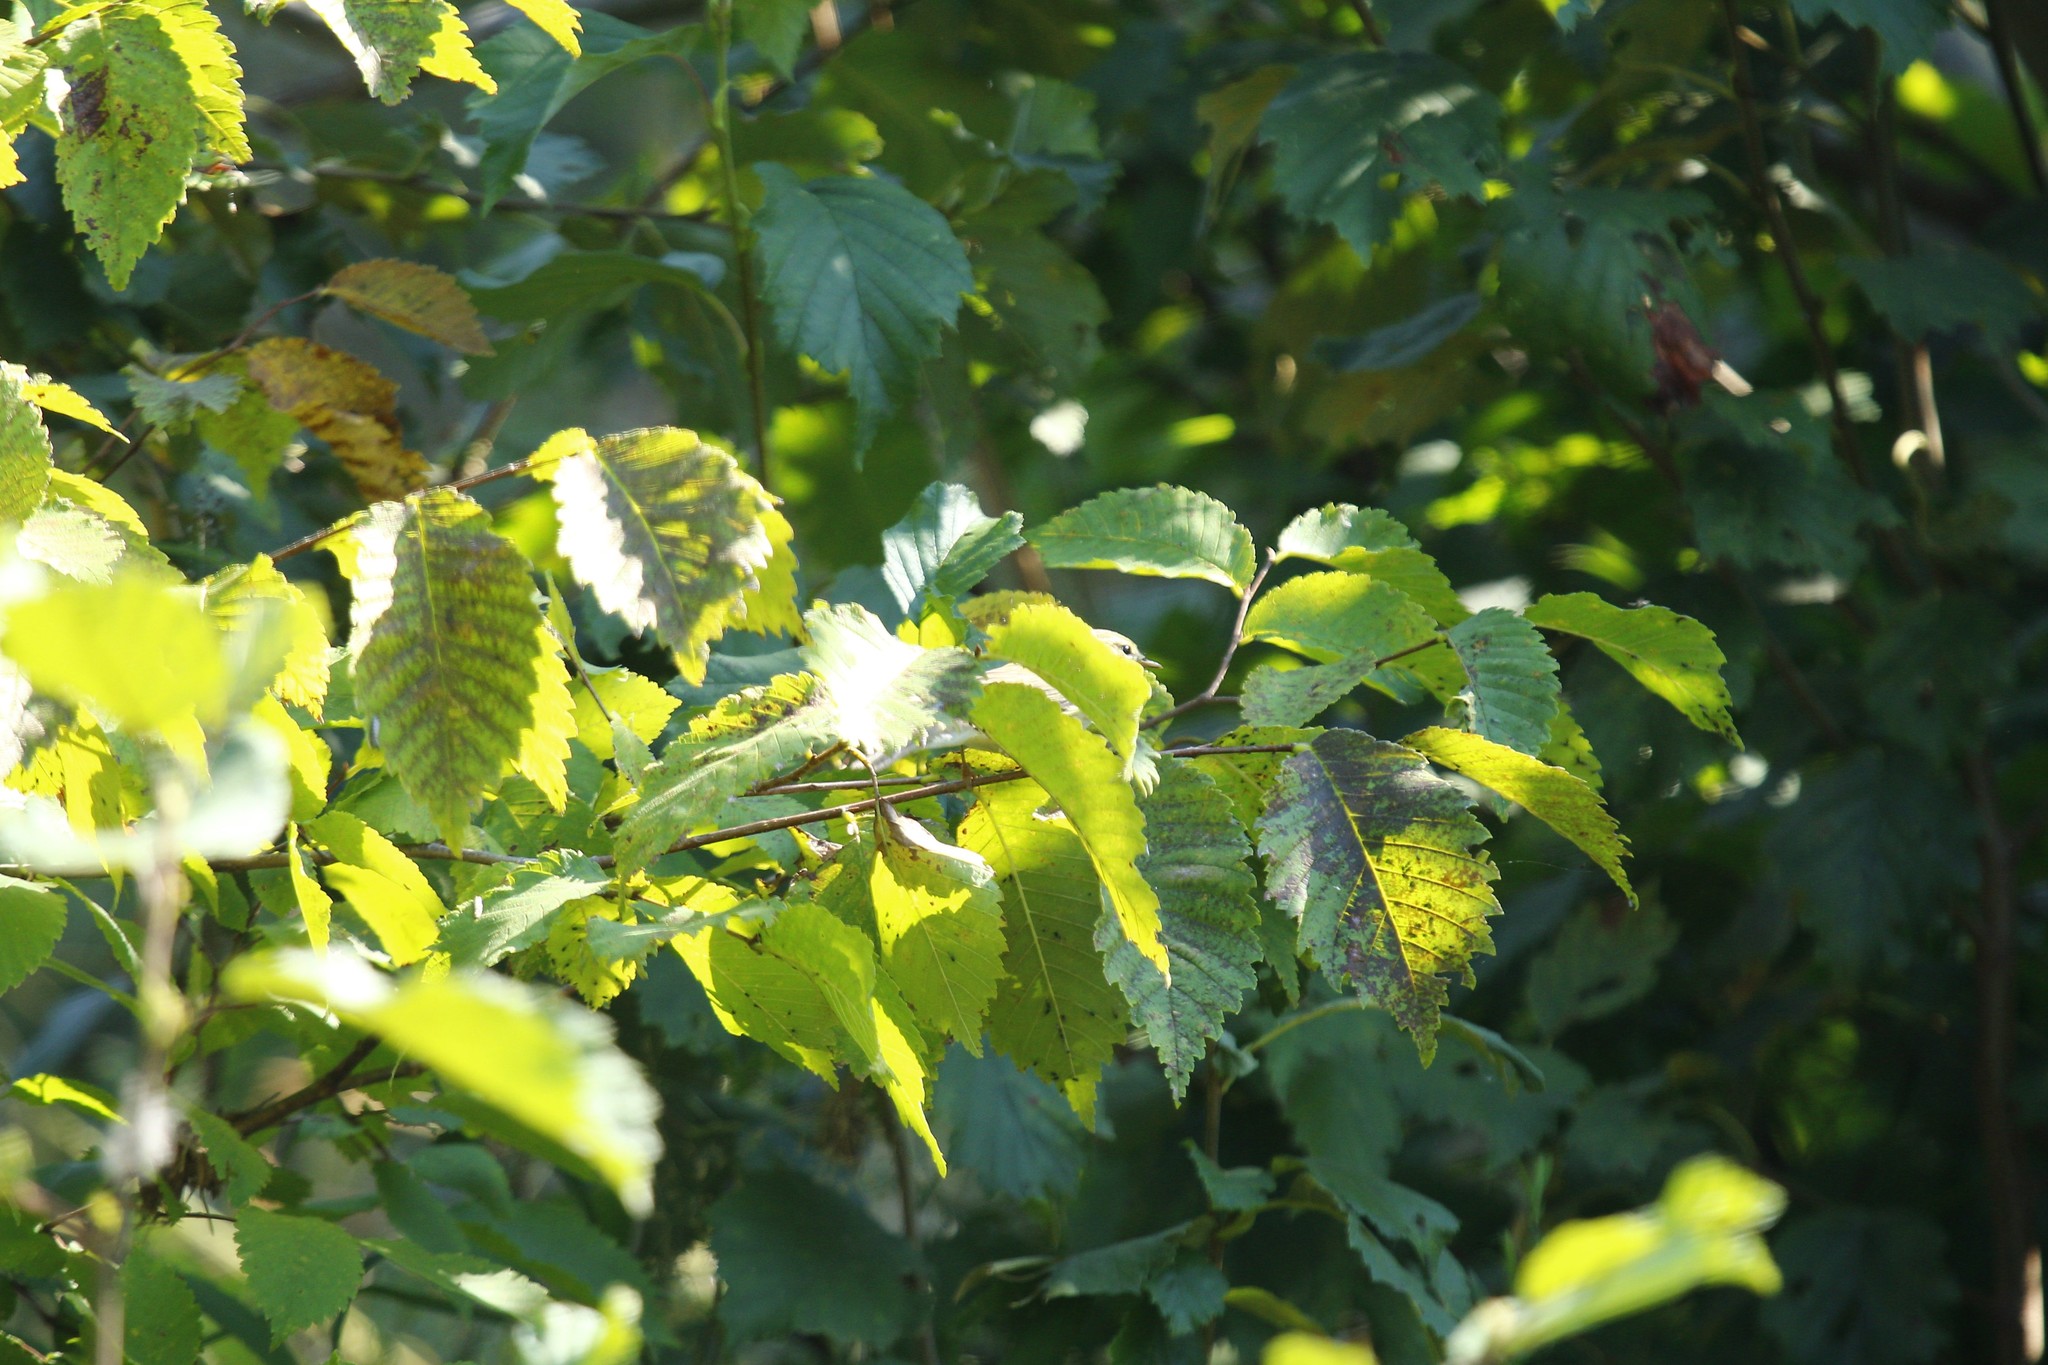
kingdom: Plantae
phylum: Tracheophyta
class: Magnoliopsida
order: Rosales
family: Ulmaceae
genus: Ulmus
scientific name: Ulmus laevis
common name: European white-elm
